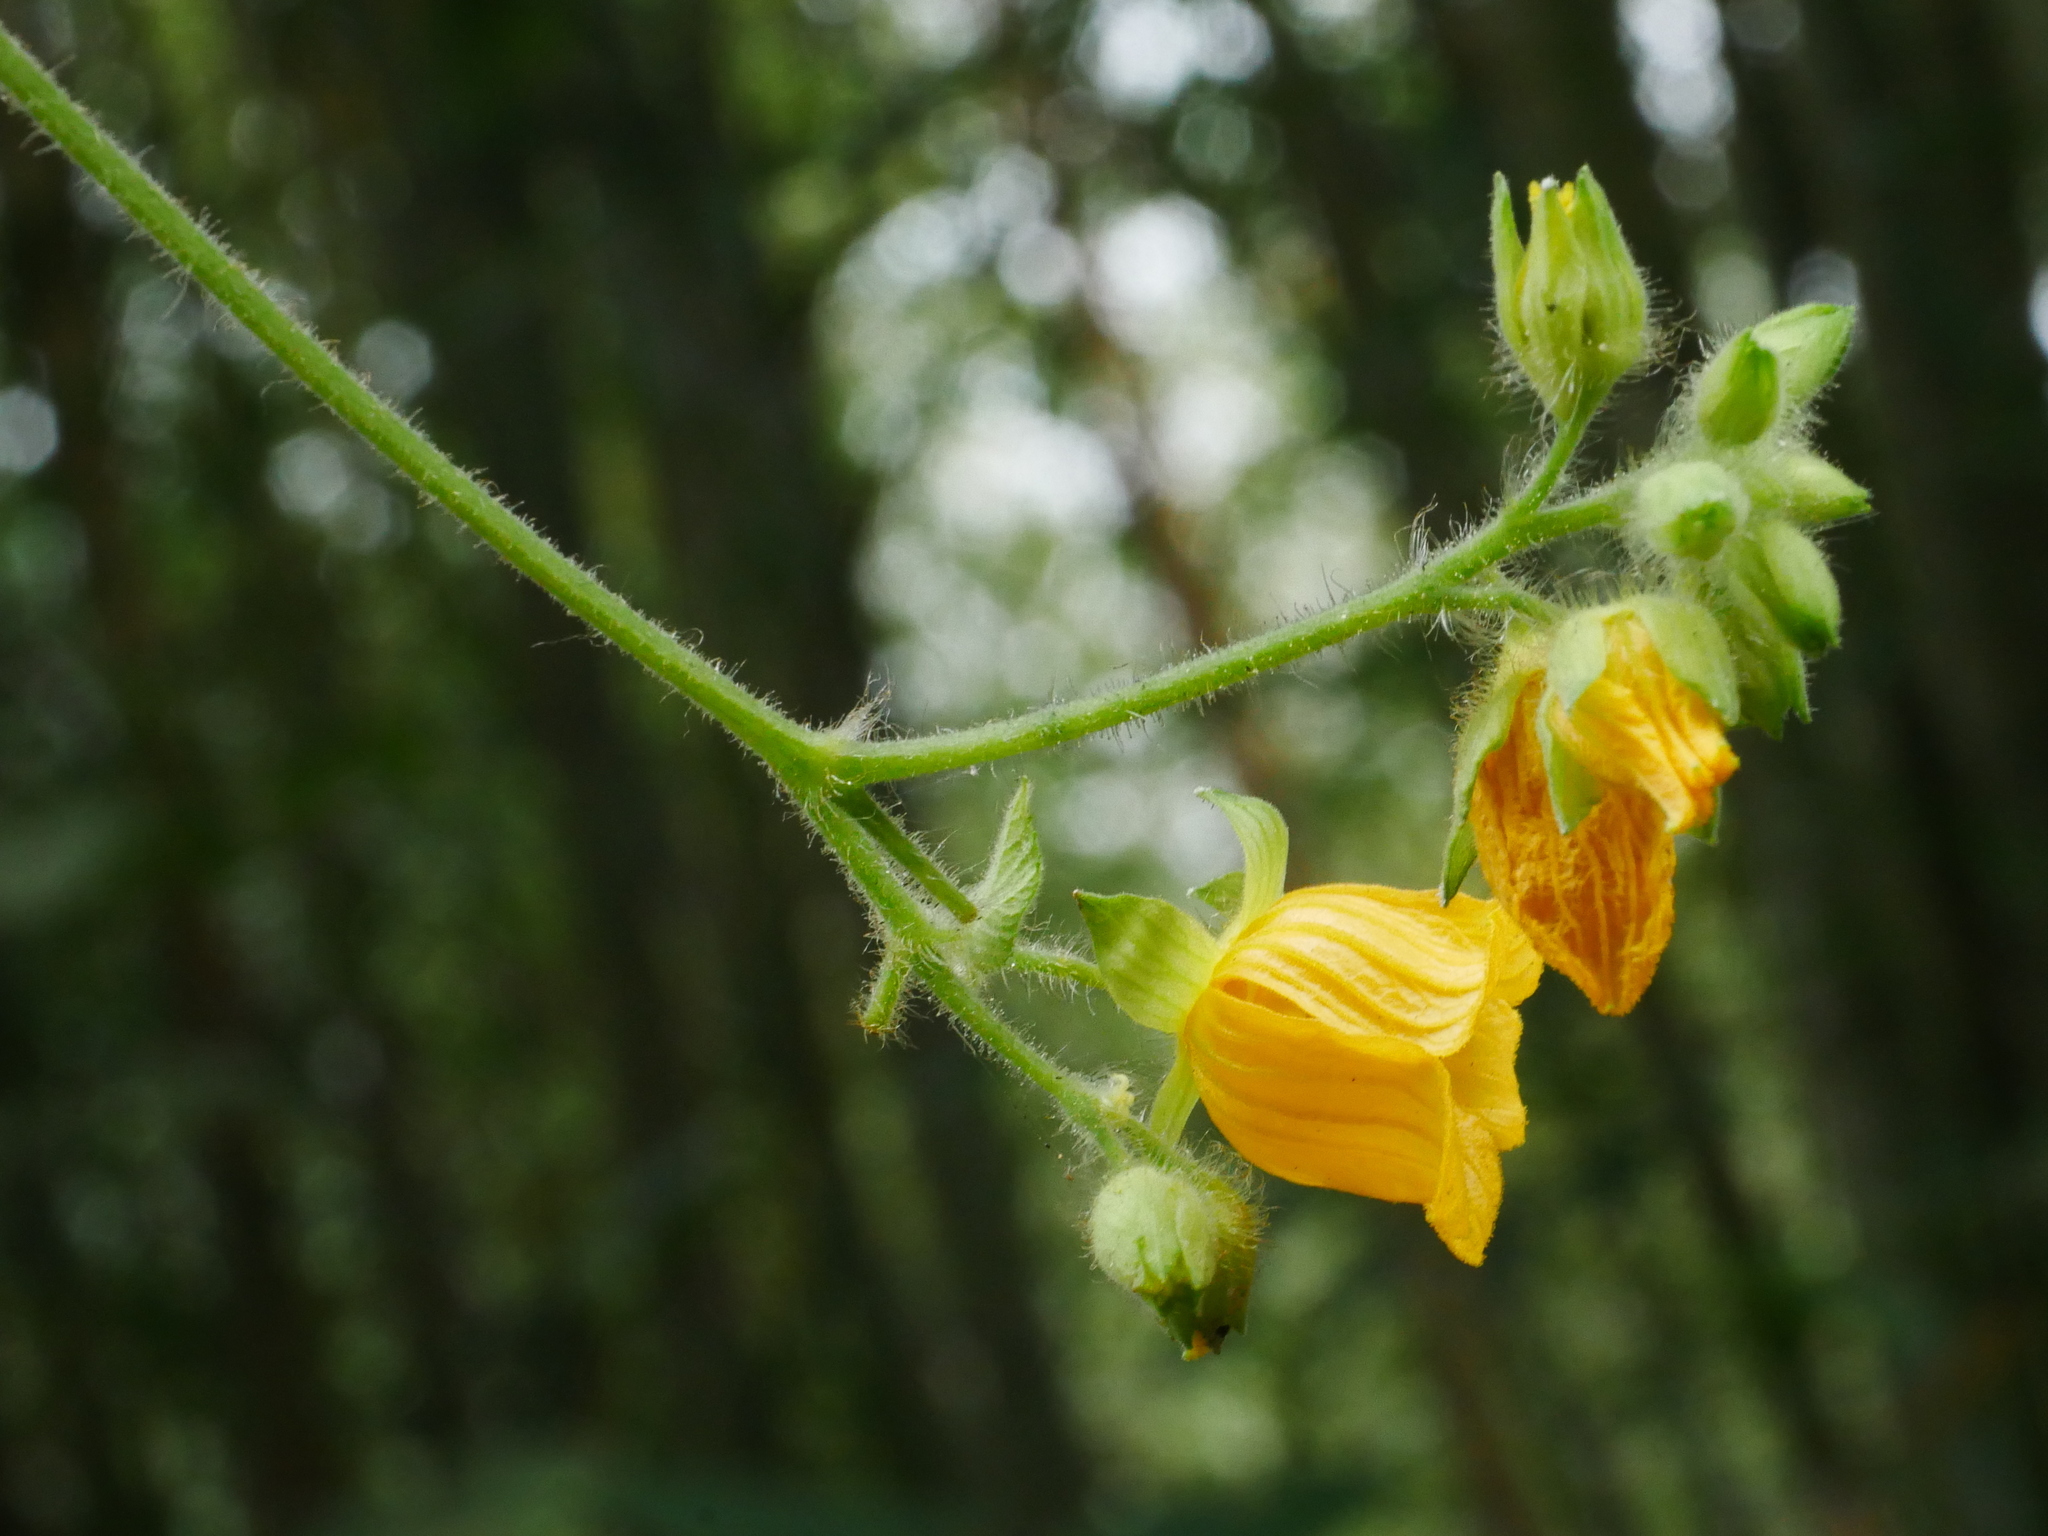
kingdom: Plantae
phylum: Tracheophyta
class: Magnoliopsida
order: Cucurbitales
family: Cucurbitaceae
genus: Thladiantha
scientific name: Thladiantha nudiflora
